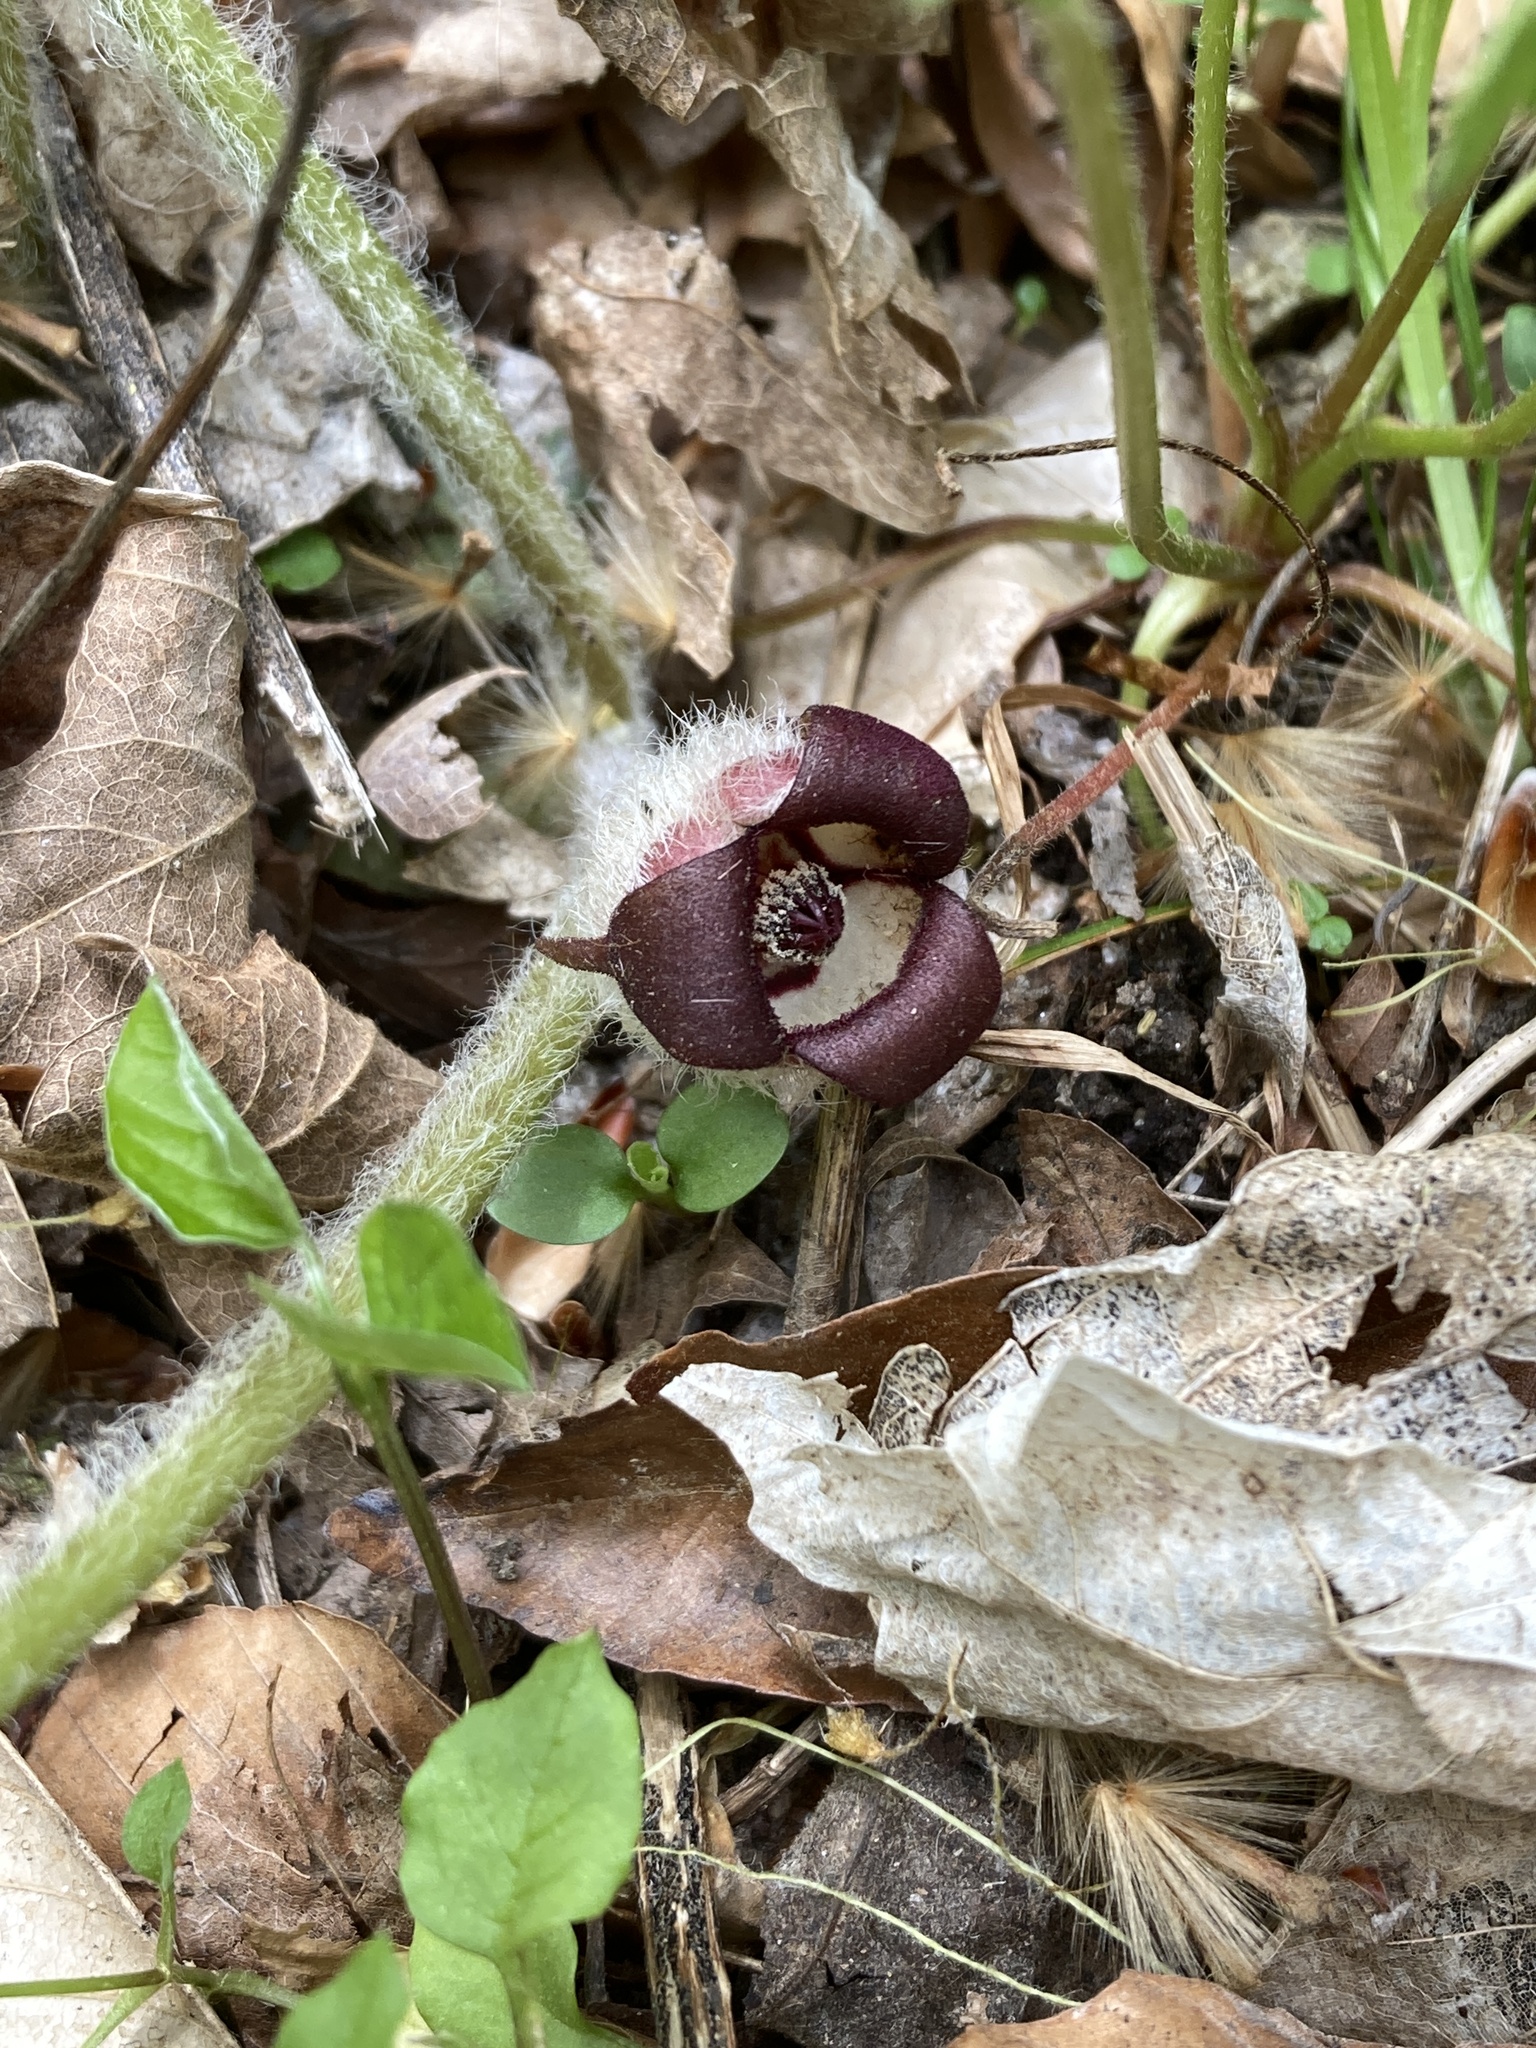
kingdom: Plantae
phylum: Tracheophyta
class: Magnoliopsida
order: Piperales
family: Aristolochiaceae
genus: Asarum
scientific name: Asarum canadense
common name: Wild ginger
